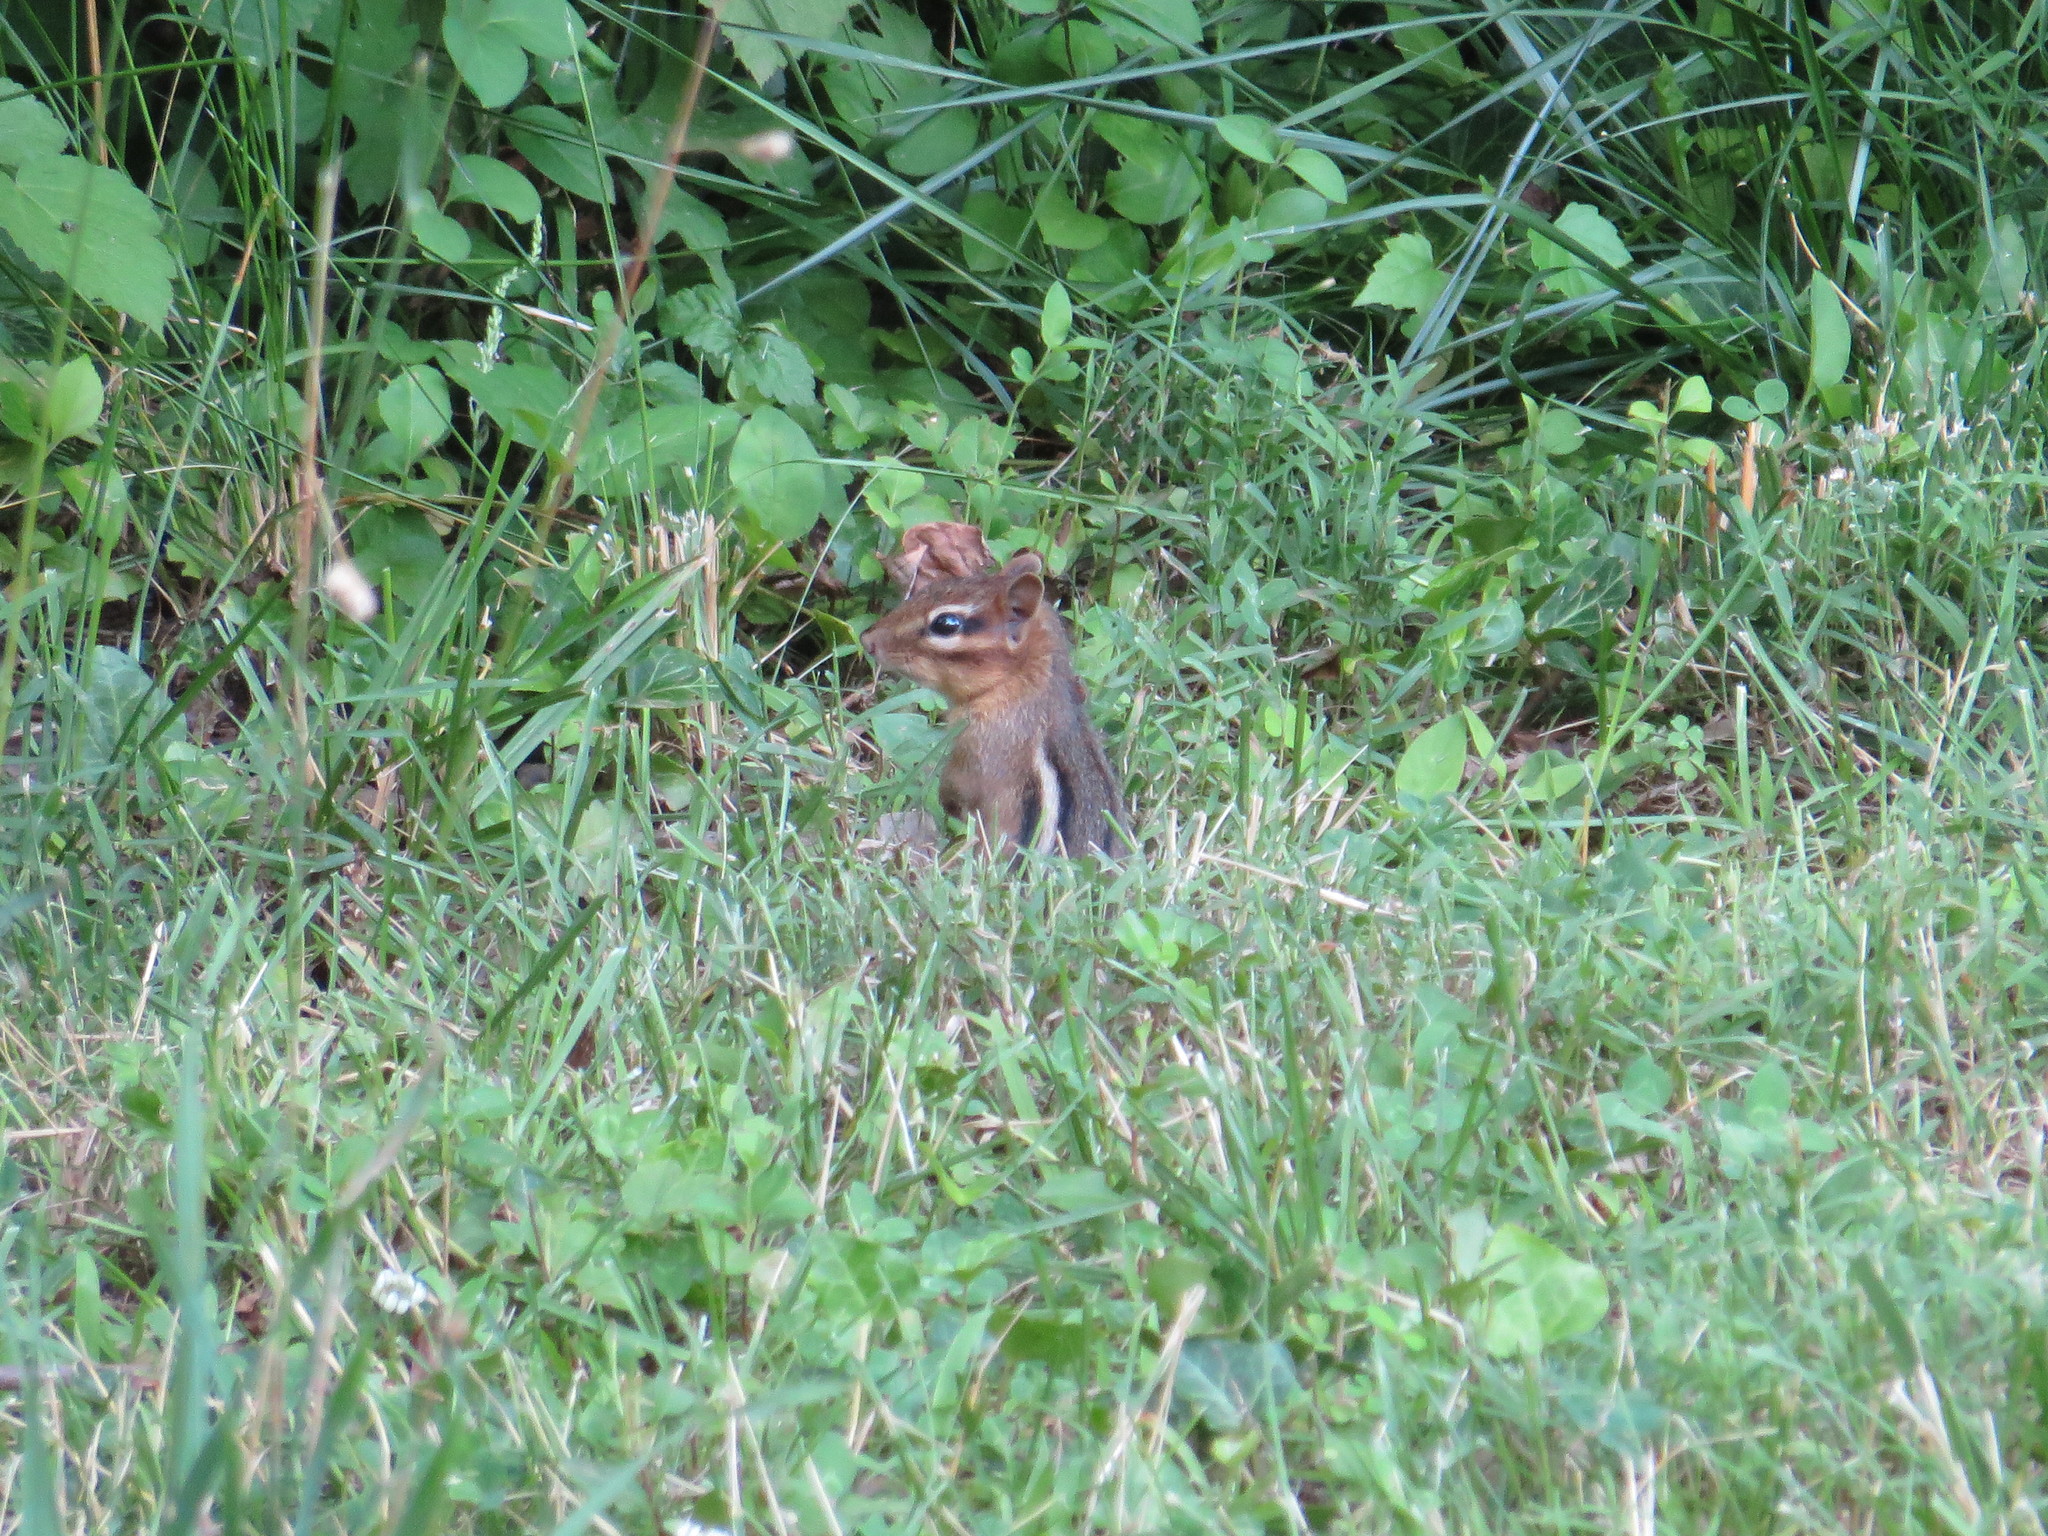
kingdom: Animalia
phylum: Chordata
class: Mammalia
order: Rodentia
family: Sciuridae
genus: Tamias
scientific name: Tamias striatus
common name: Eastern chipmunk
